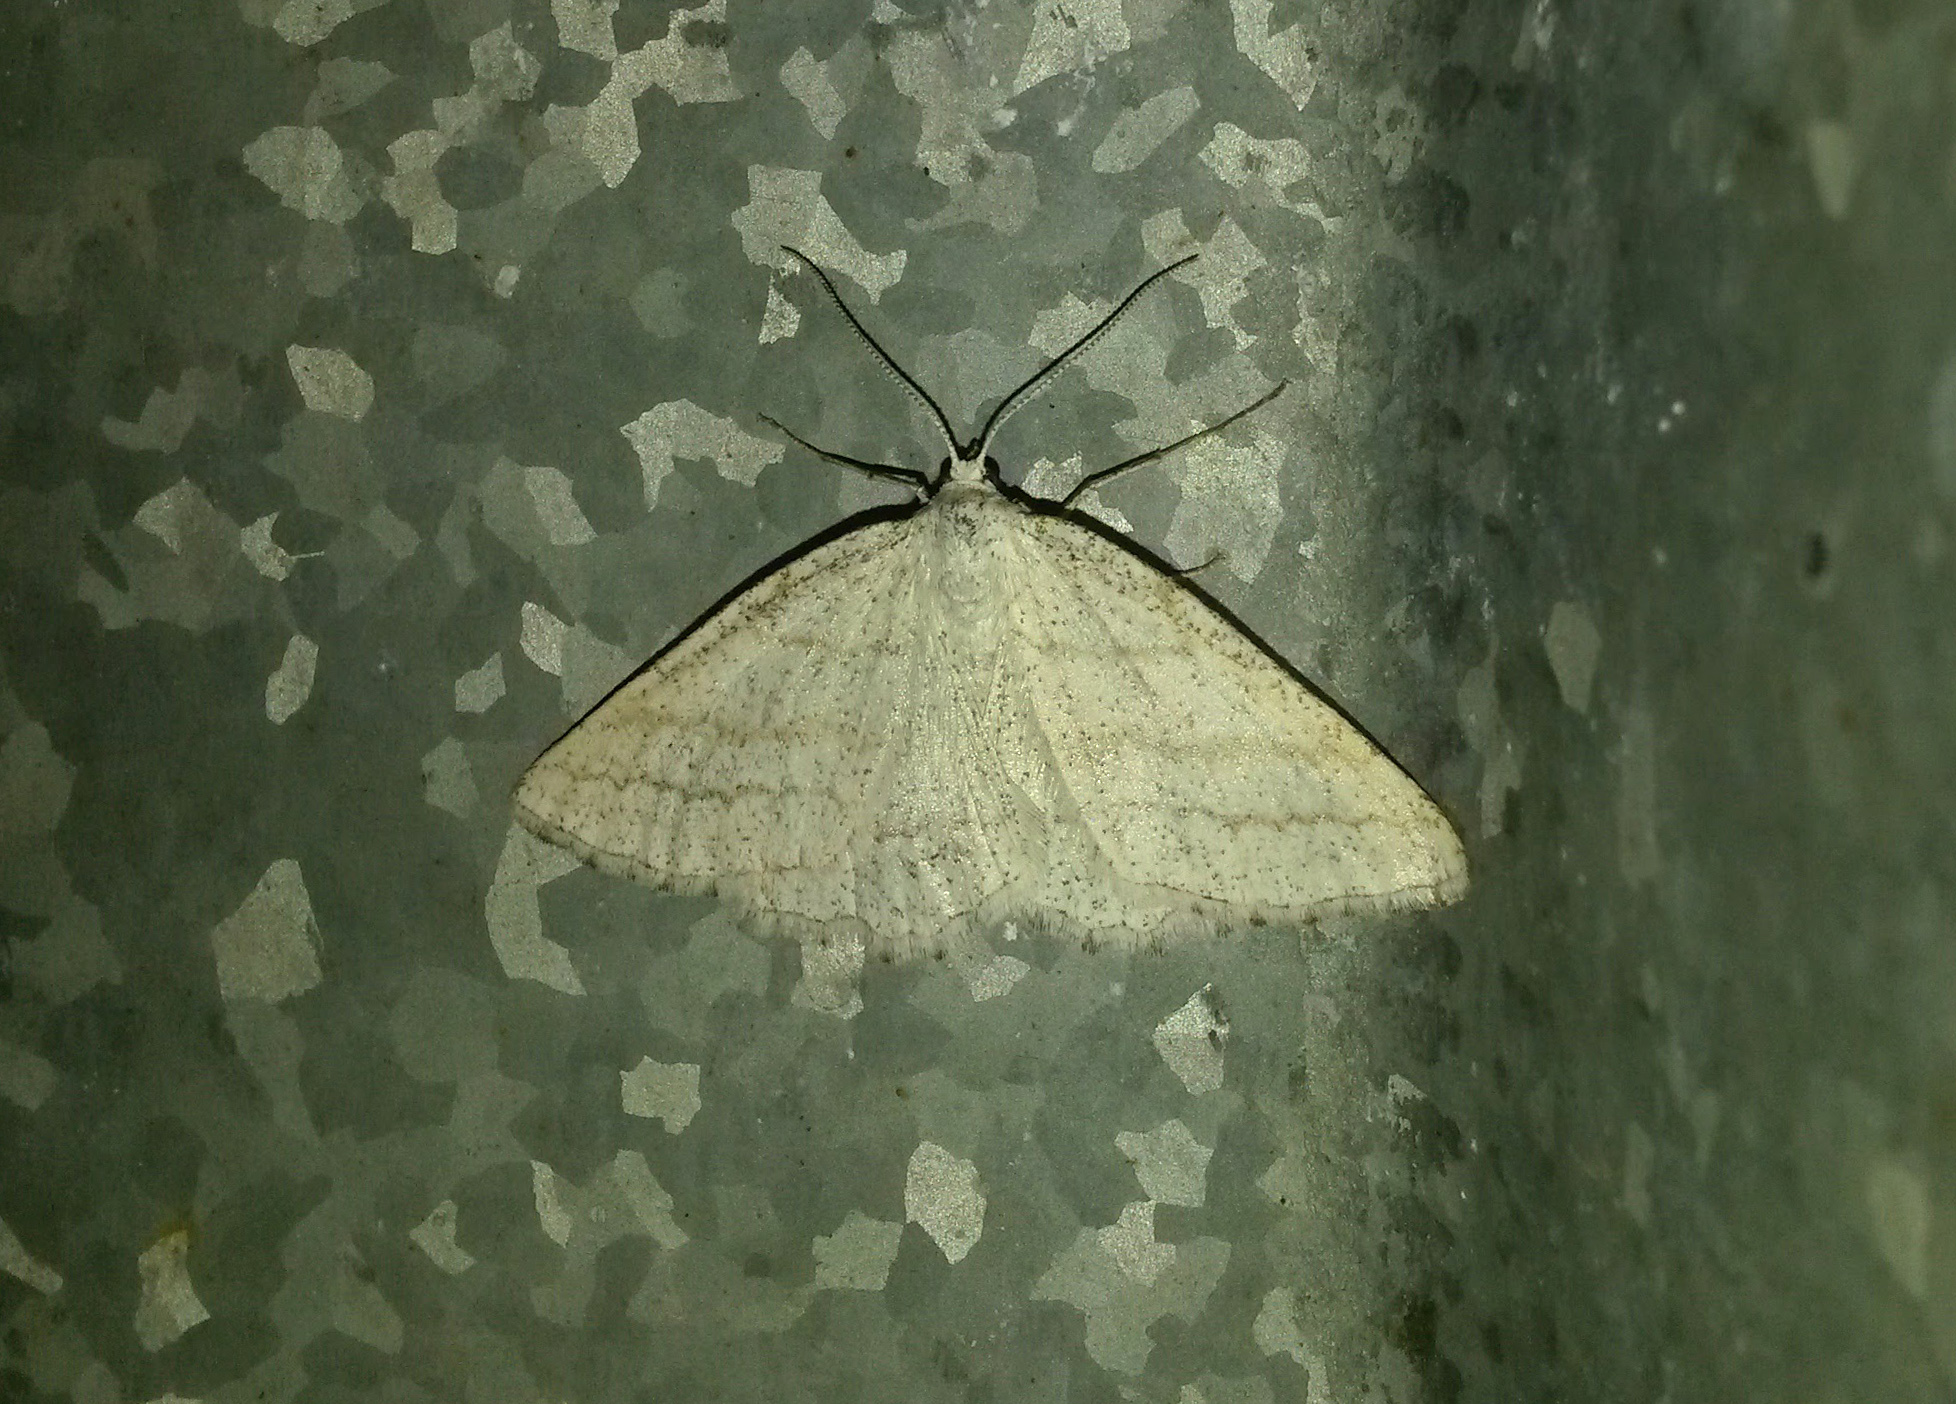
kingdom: Animalia
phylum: Arthropoda
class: Insecta
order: Lepidoptera
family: Geometridae
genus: Perconia
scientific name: Perconia strigillaria
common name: Grass wave
